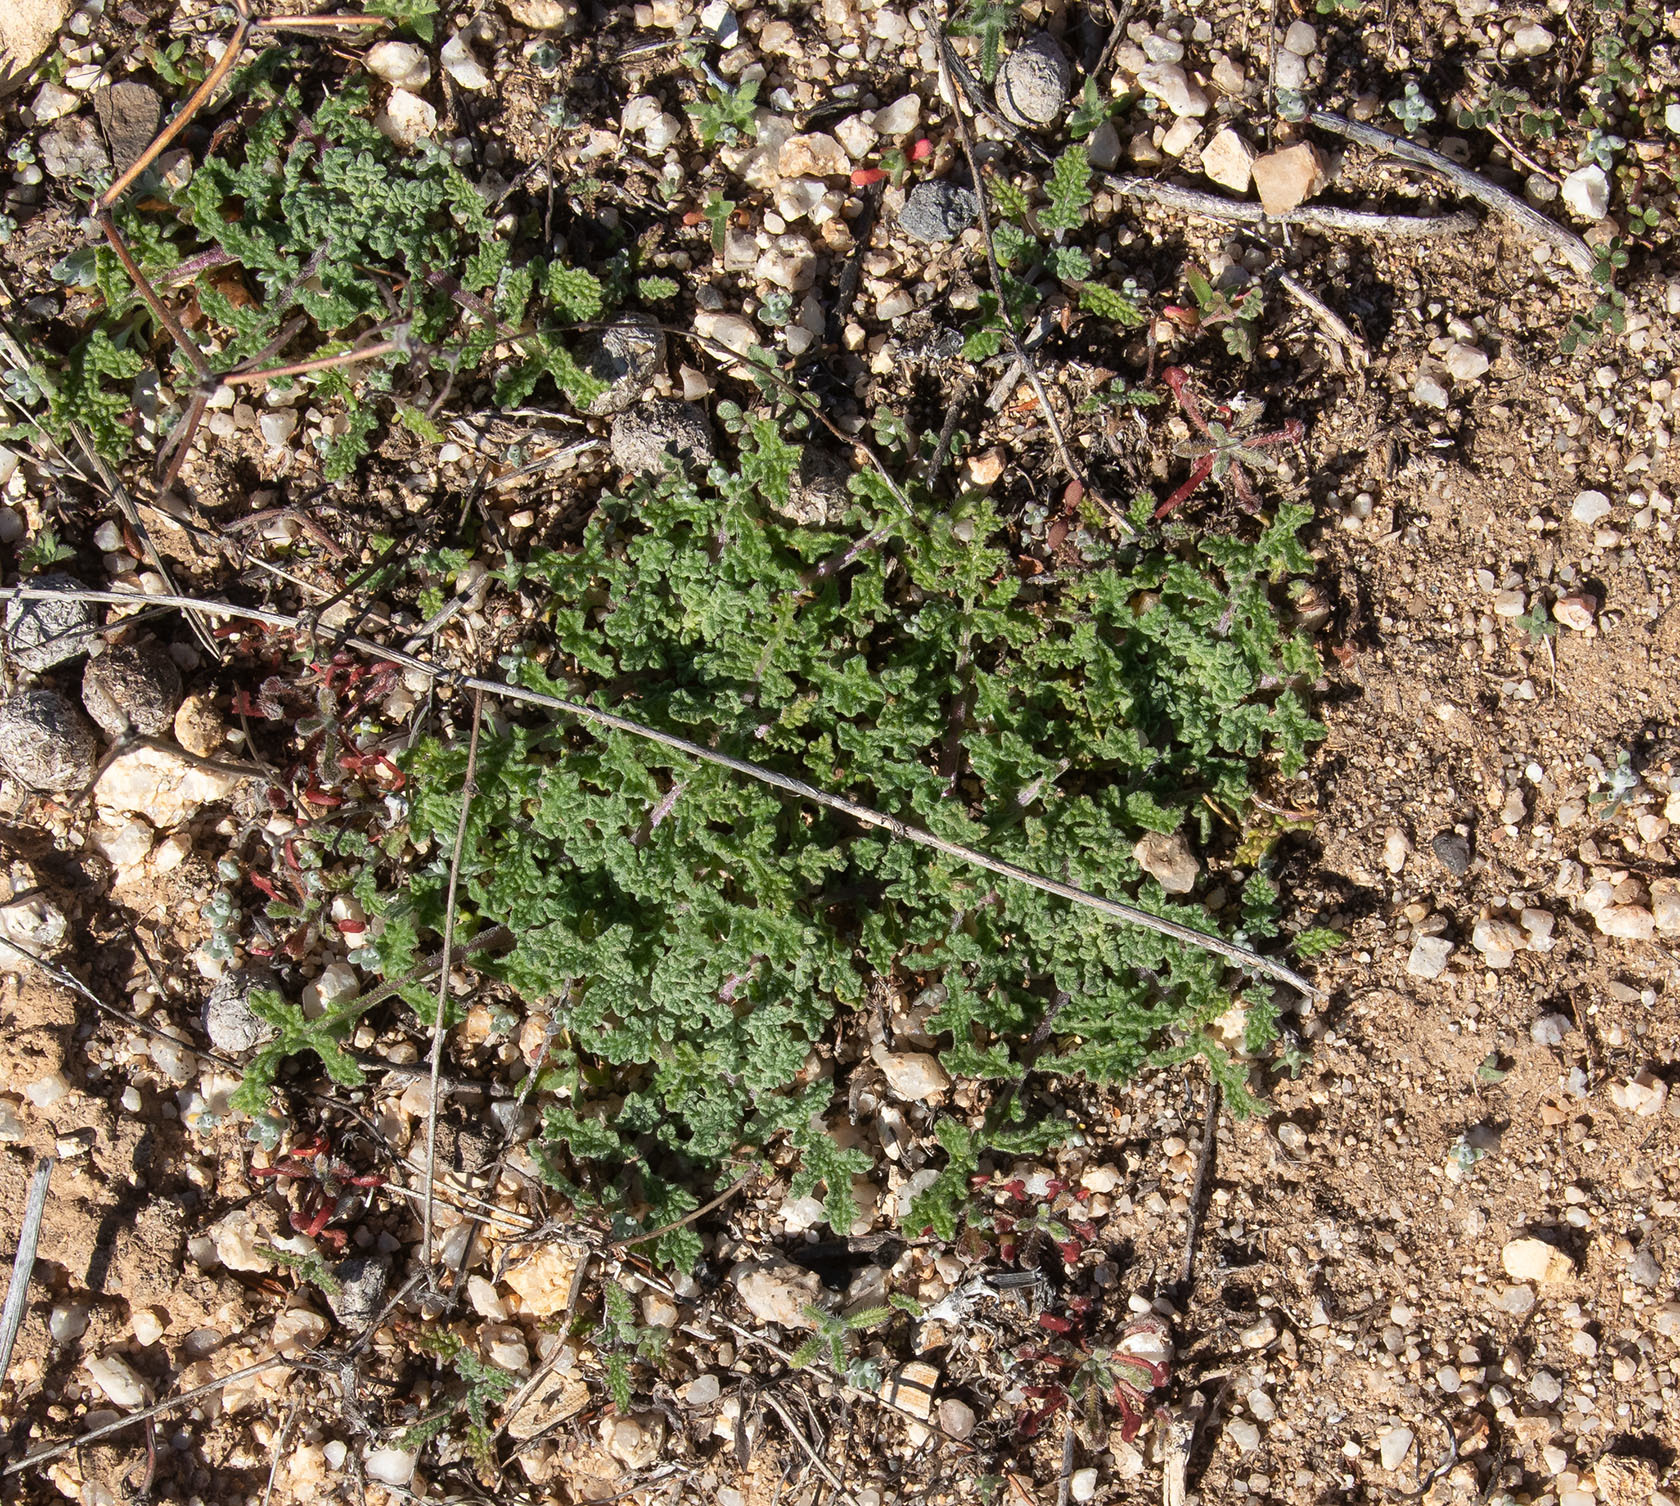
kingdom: Plantae
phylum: Tracheophyta
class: Magnoliopsida
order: Lamiales
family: Lamiaceae
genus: Salvia
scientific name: Salvia columbariae
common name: Chia
